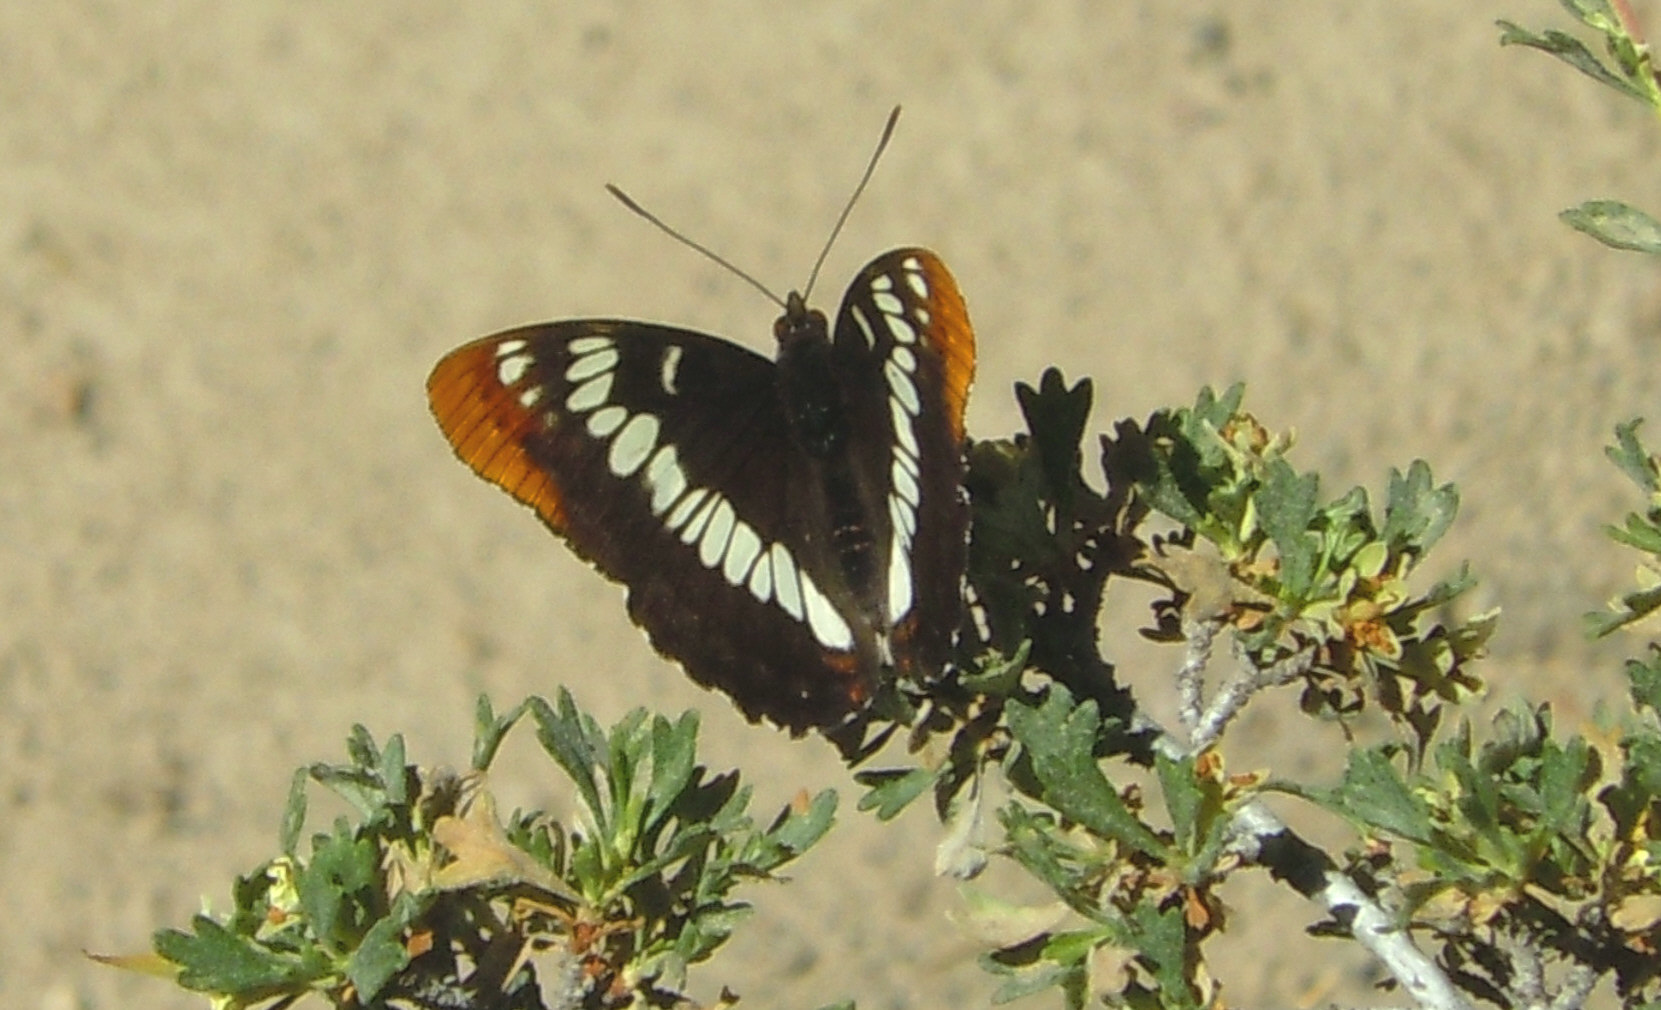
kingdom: Animalia
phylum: Arthropoda
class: Insecta
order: Lepidoptera
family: Nymphalidae
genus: Limenitis
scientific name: Limenitis lorquini
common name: Lorquin's admiral
